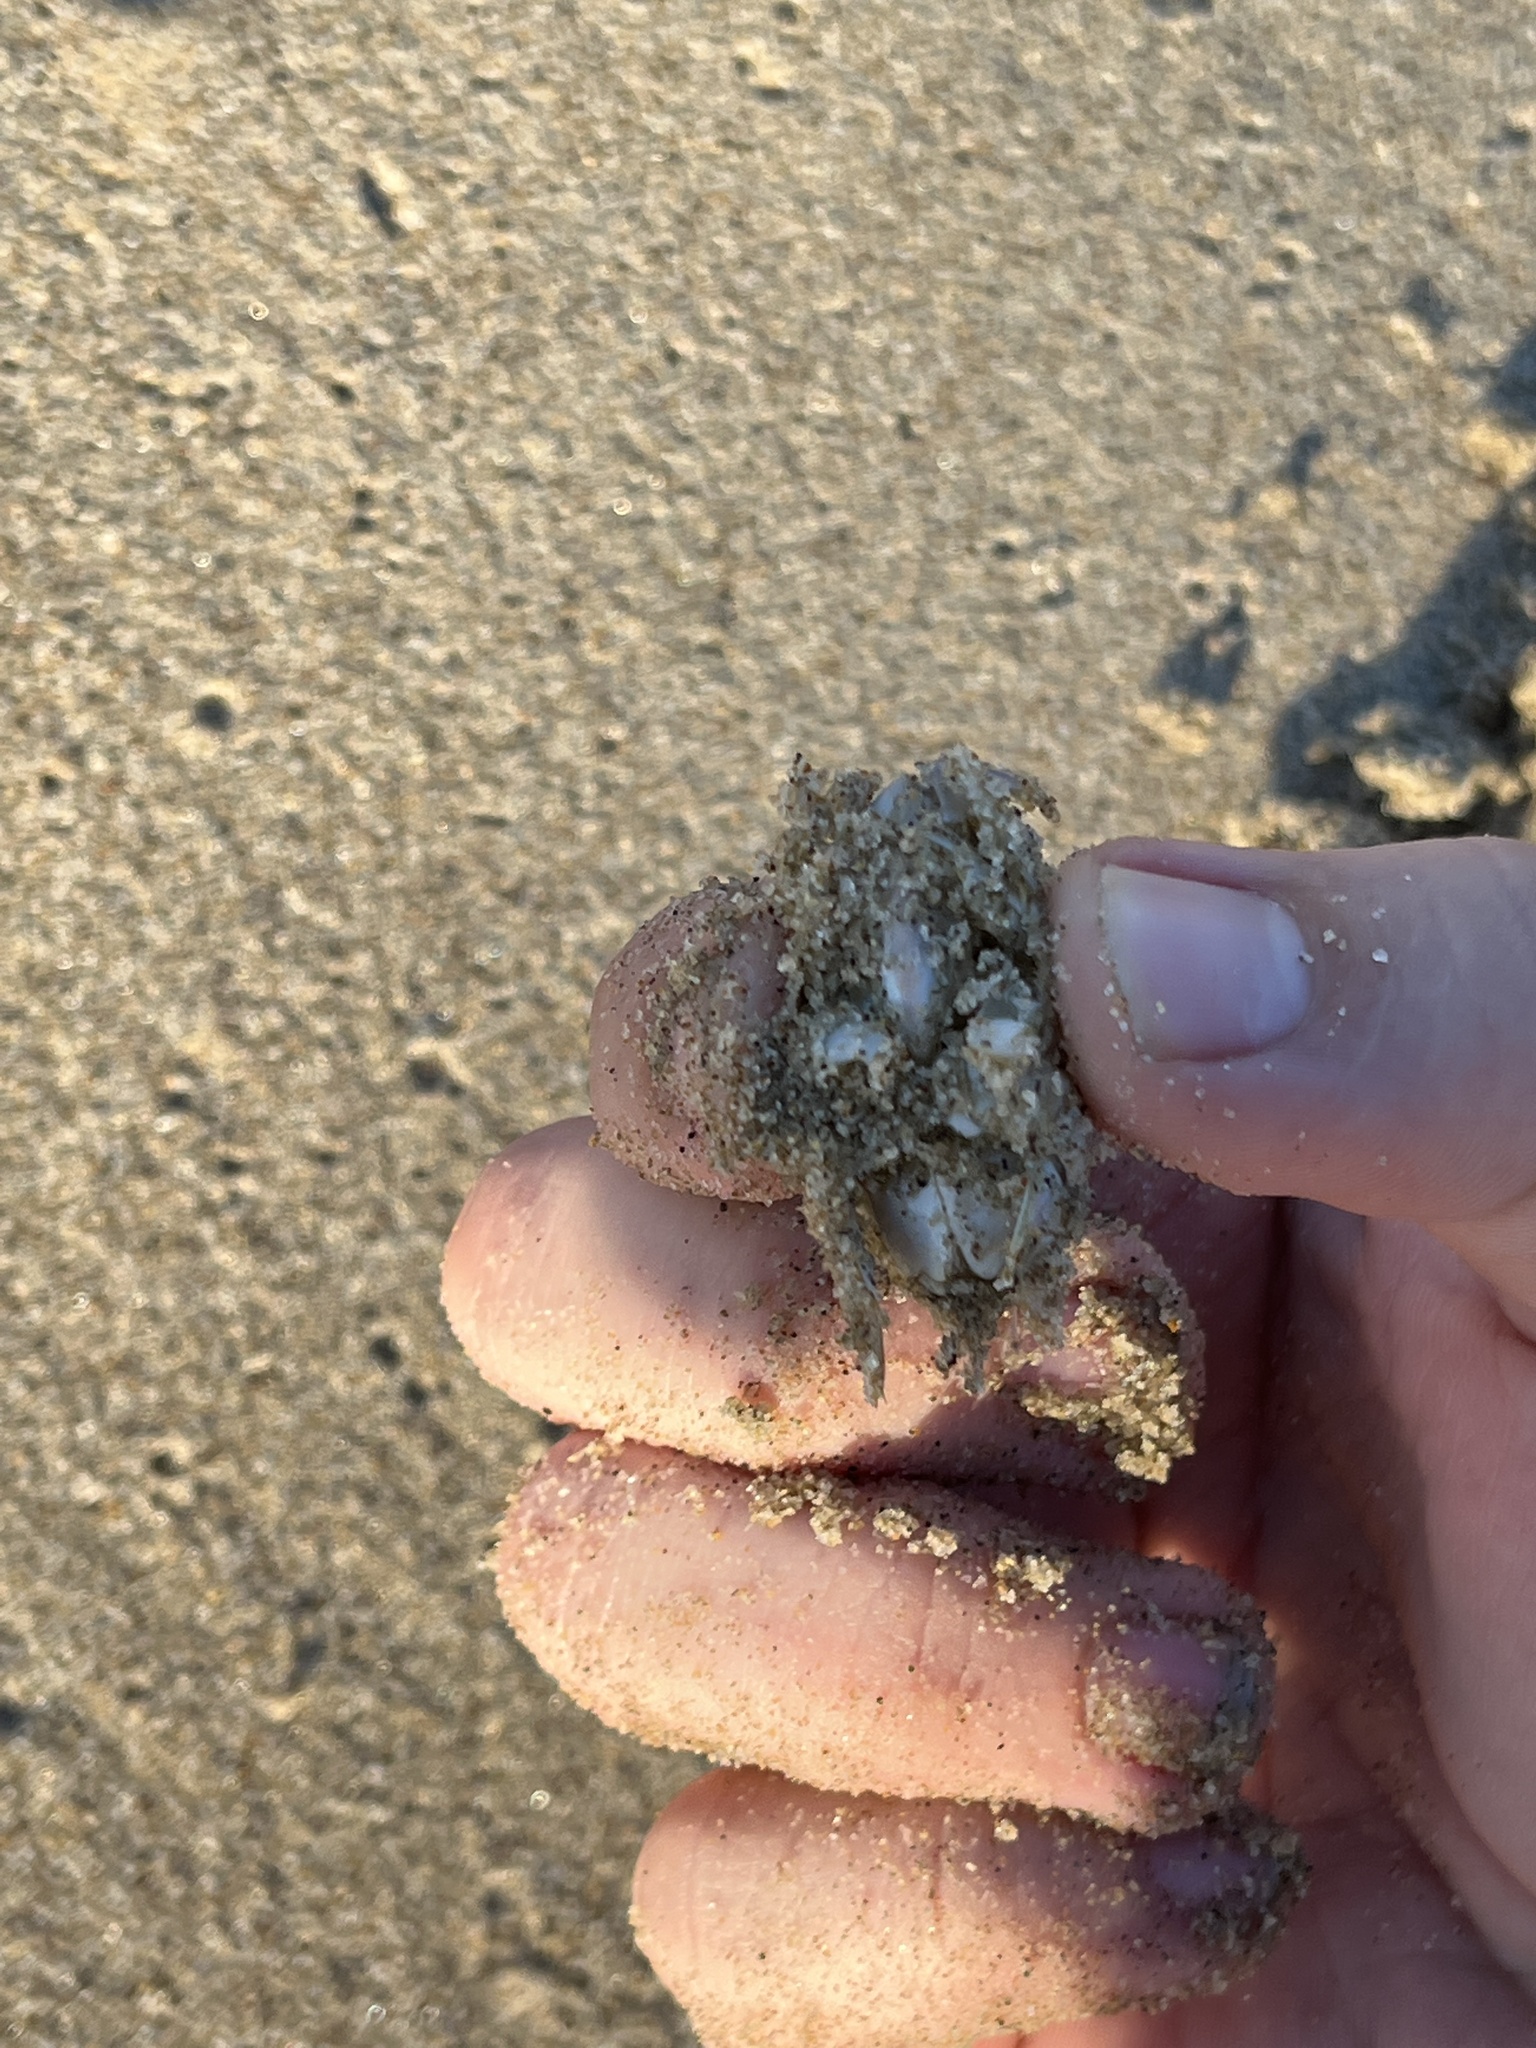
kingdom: Animalia
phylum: Arthropoda
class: Malacostraca
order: Decapoda
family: Hippidae
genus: Emerita
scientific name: Emerita analoga
